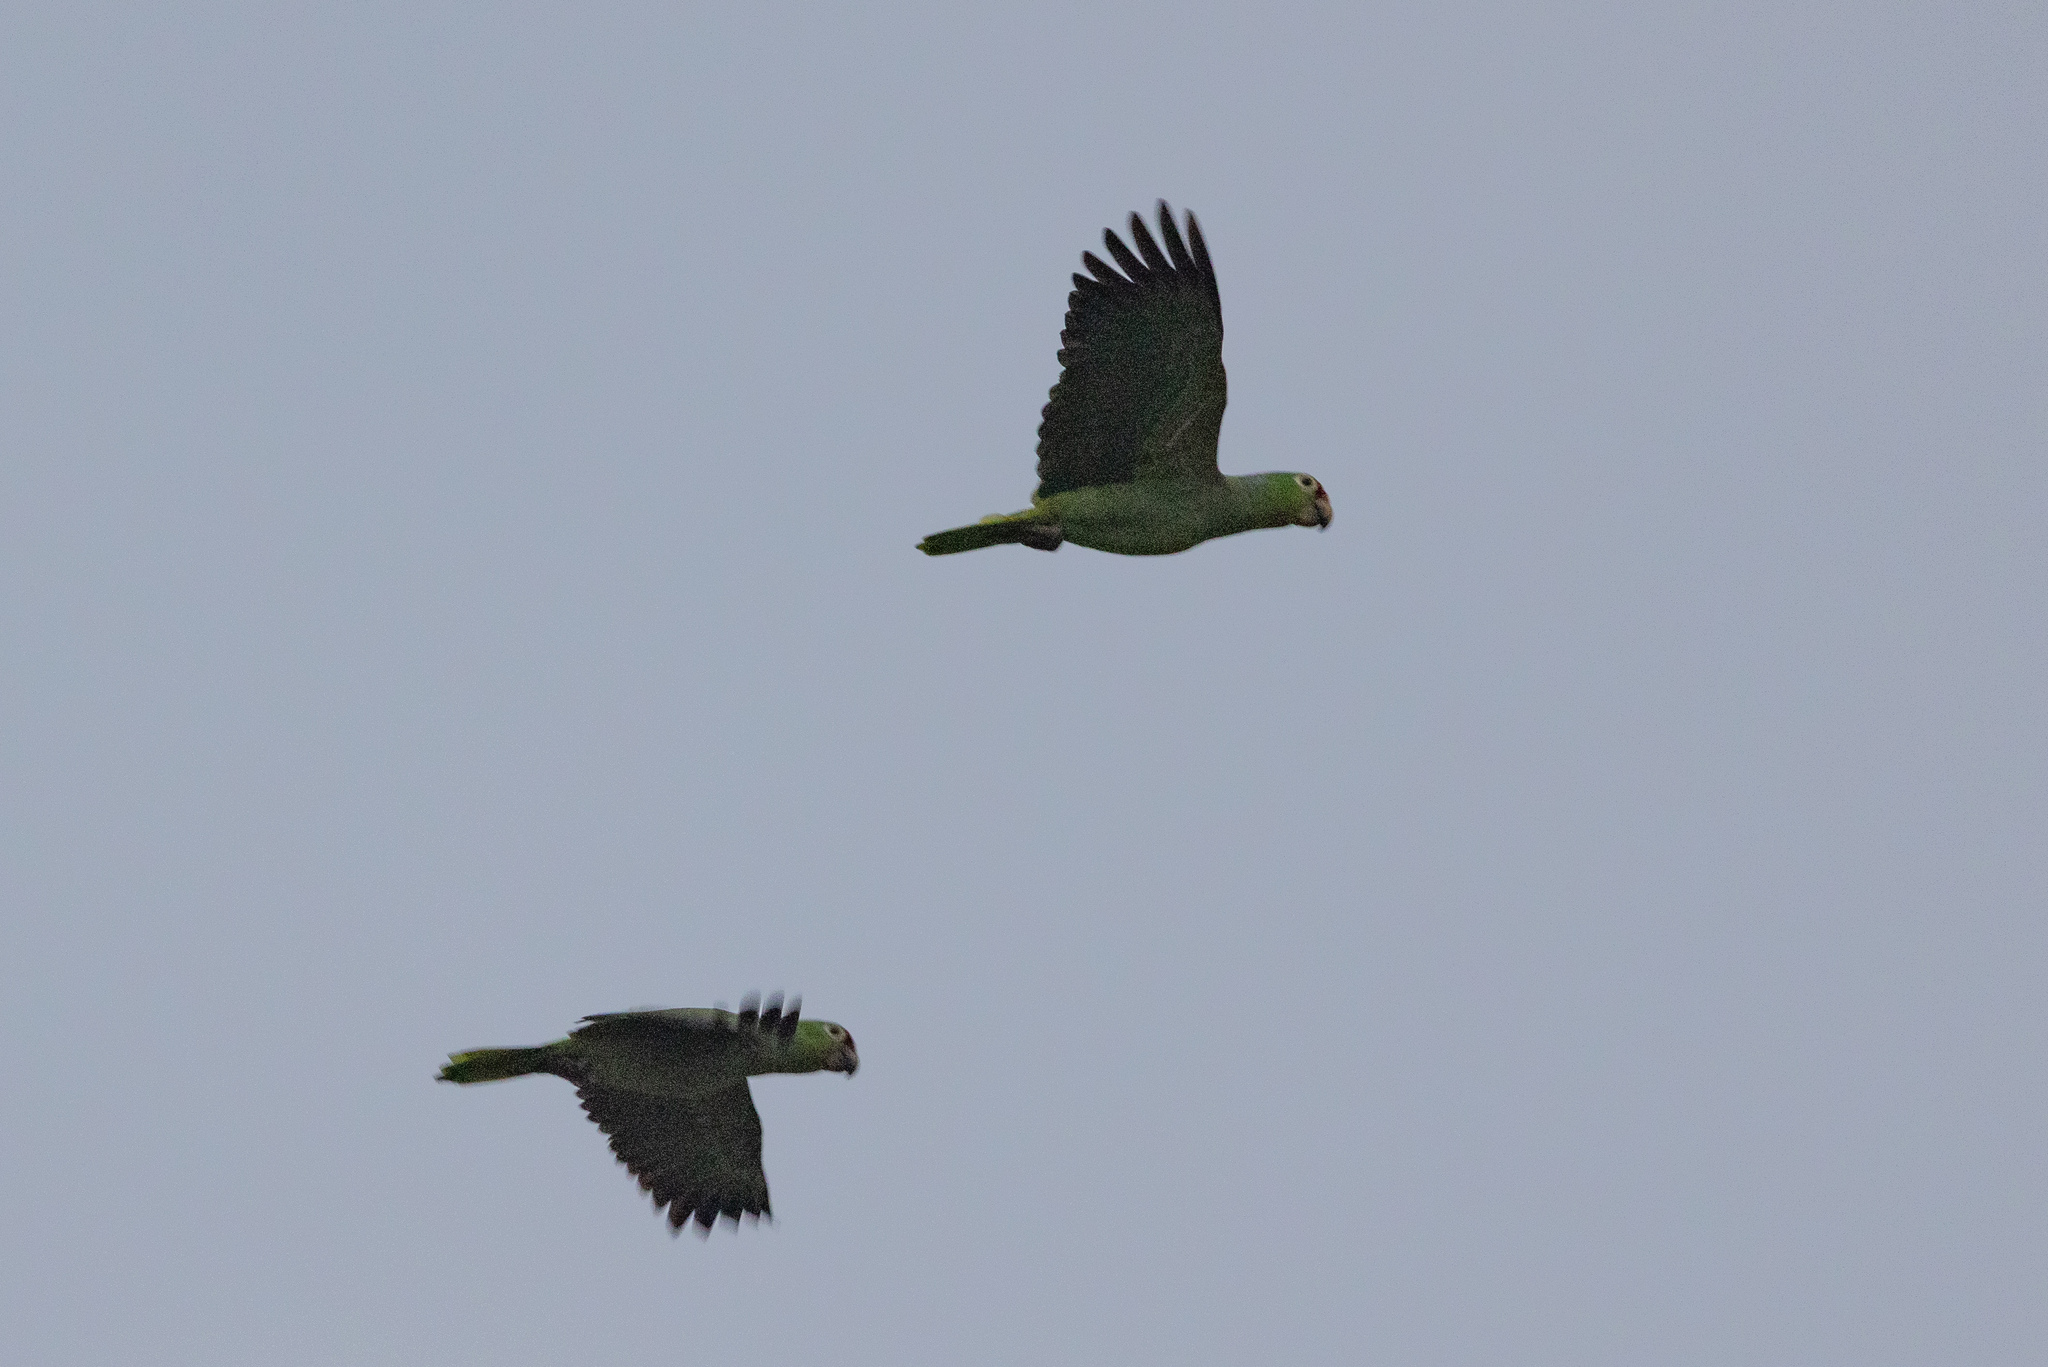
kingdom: Animalia
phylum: Chordata
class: Aves
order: Psittaciformes
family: Psittacidae
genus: Amazona
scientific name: Amazona autumnalis
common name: Red-lored amazon
